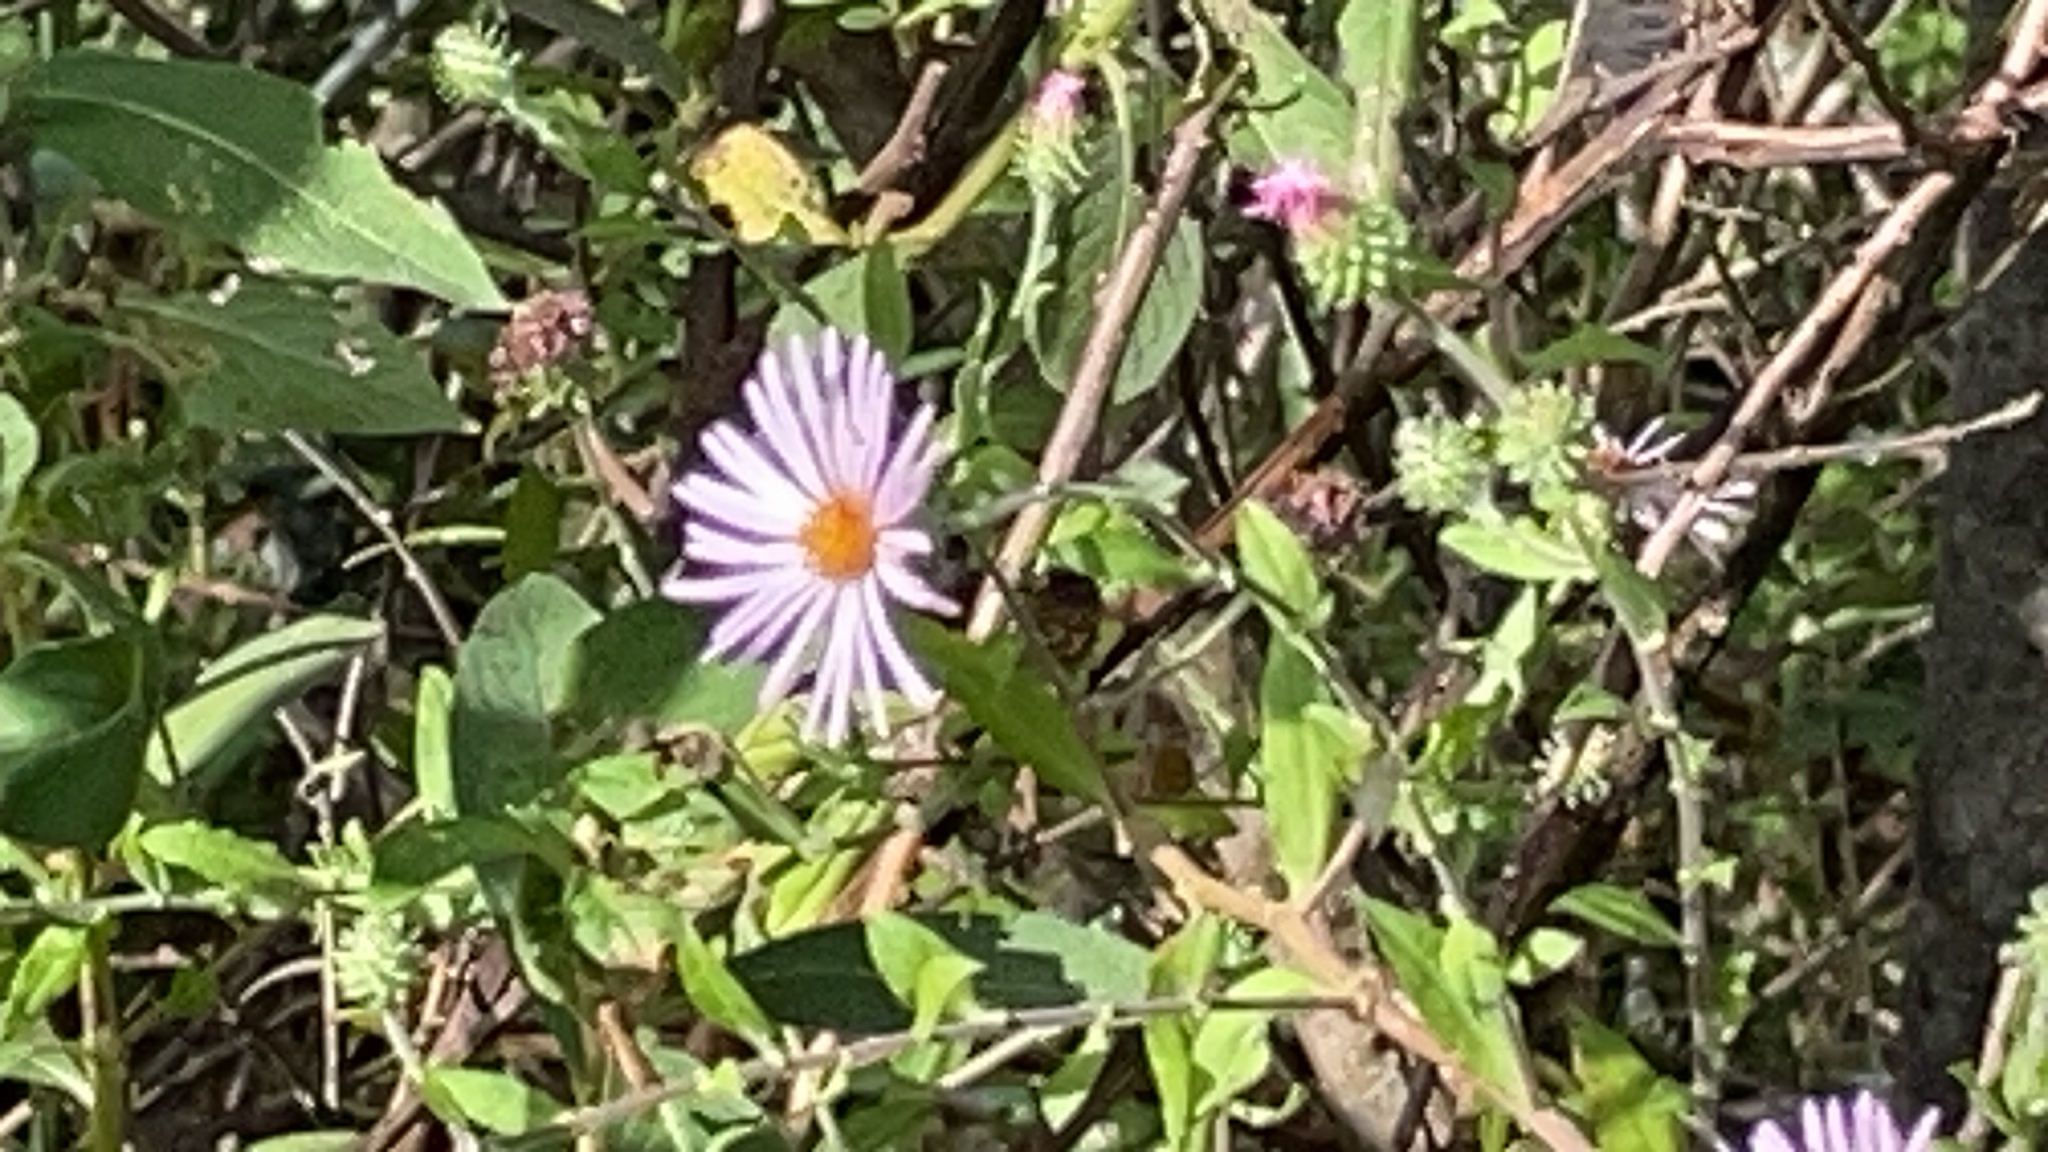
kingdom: Plantae
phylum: Tracheophyta
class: Magnoliopsida
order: Asterales
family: Asteraceae
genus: Ampelaster
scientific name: Ampelaster carolinianus
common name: Climbing aster
